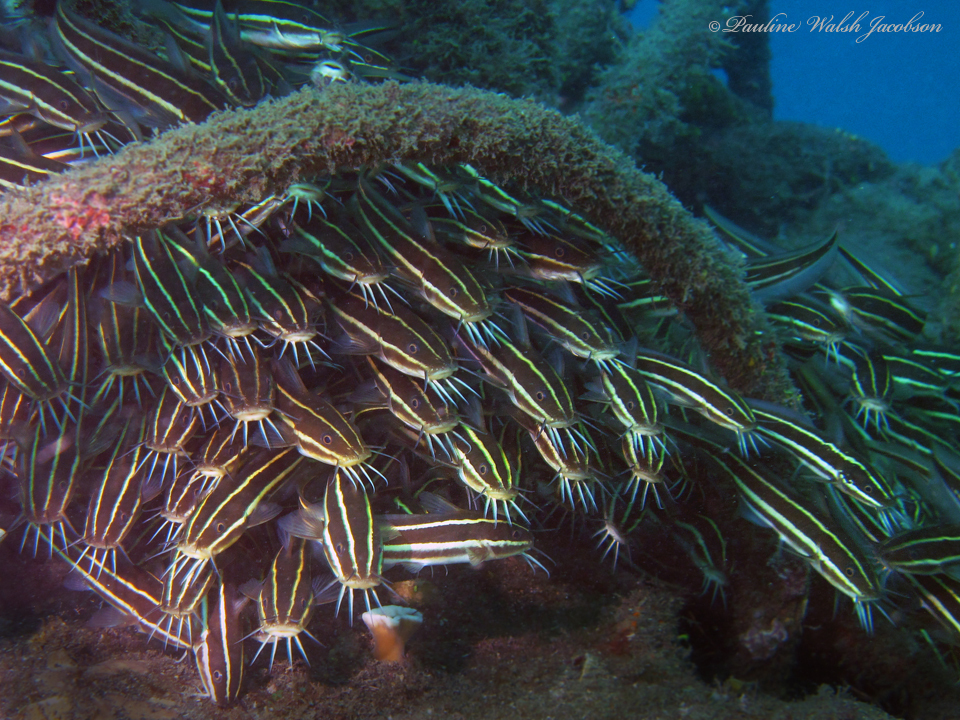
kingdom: Animalia
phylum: Chordata
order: Siluriformes
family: Plotosidae
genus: Plotosus
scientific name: Plotosus lineatus
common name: Striped eel catfish
